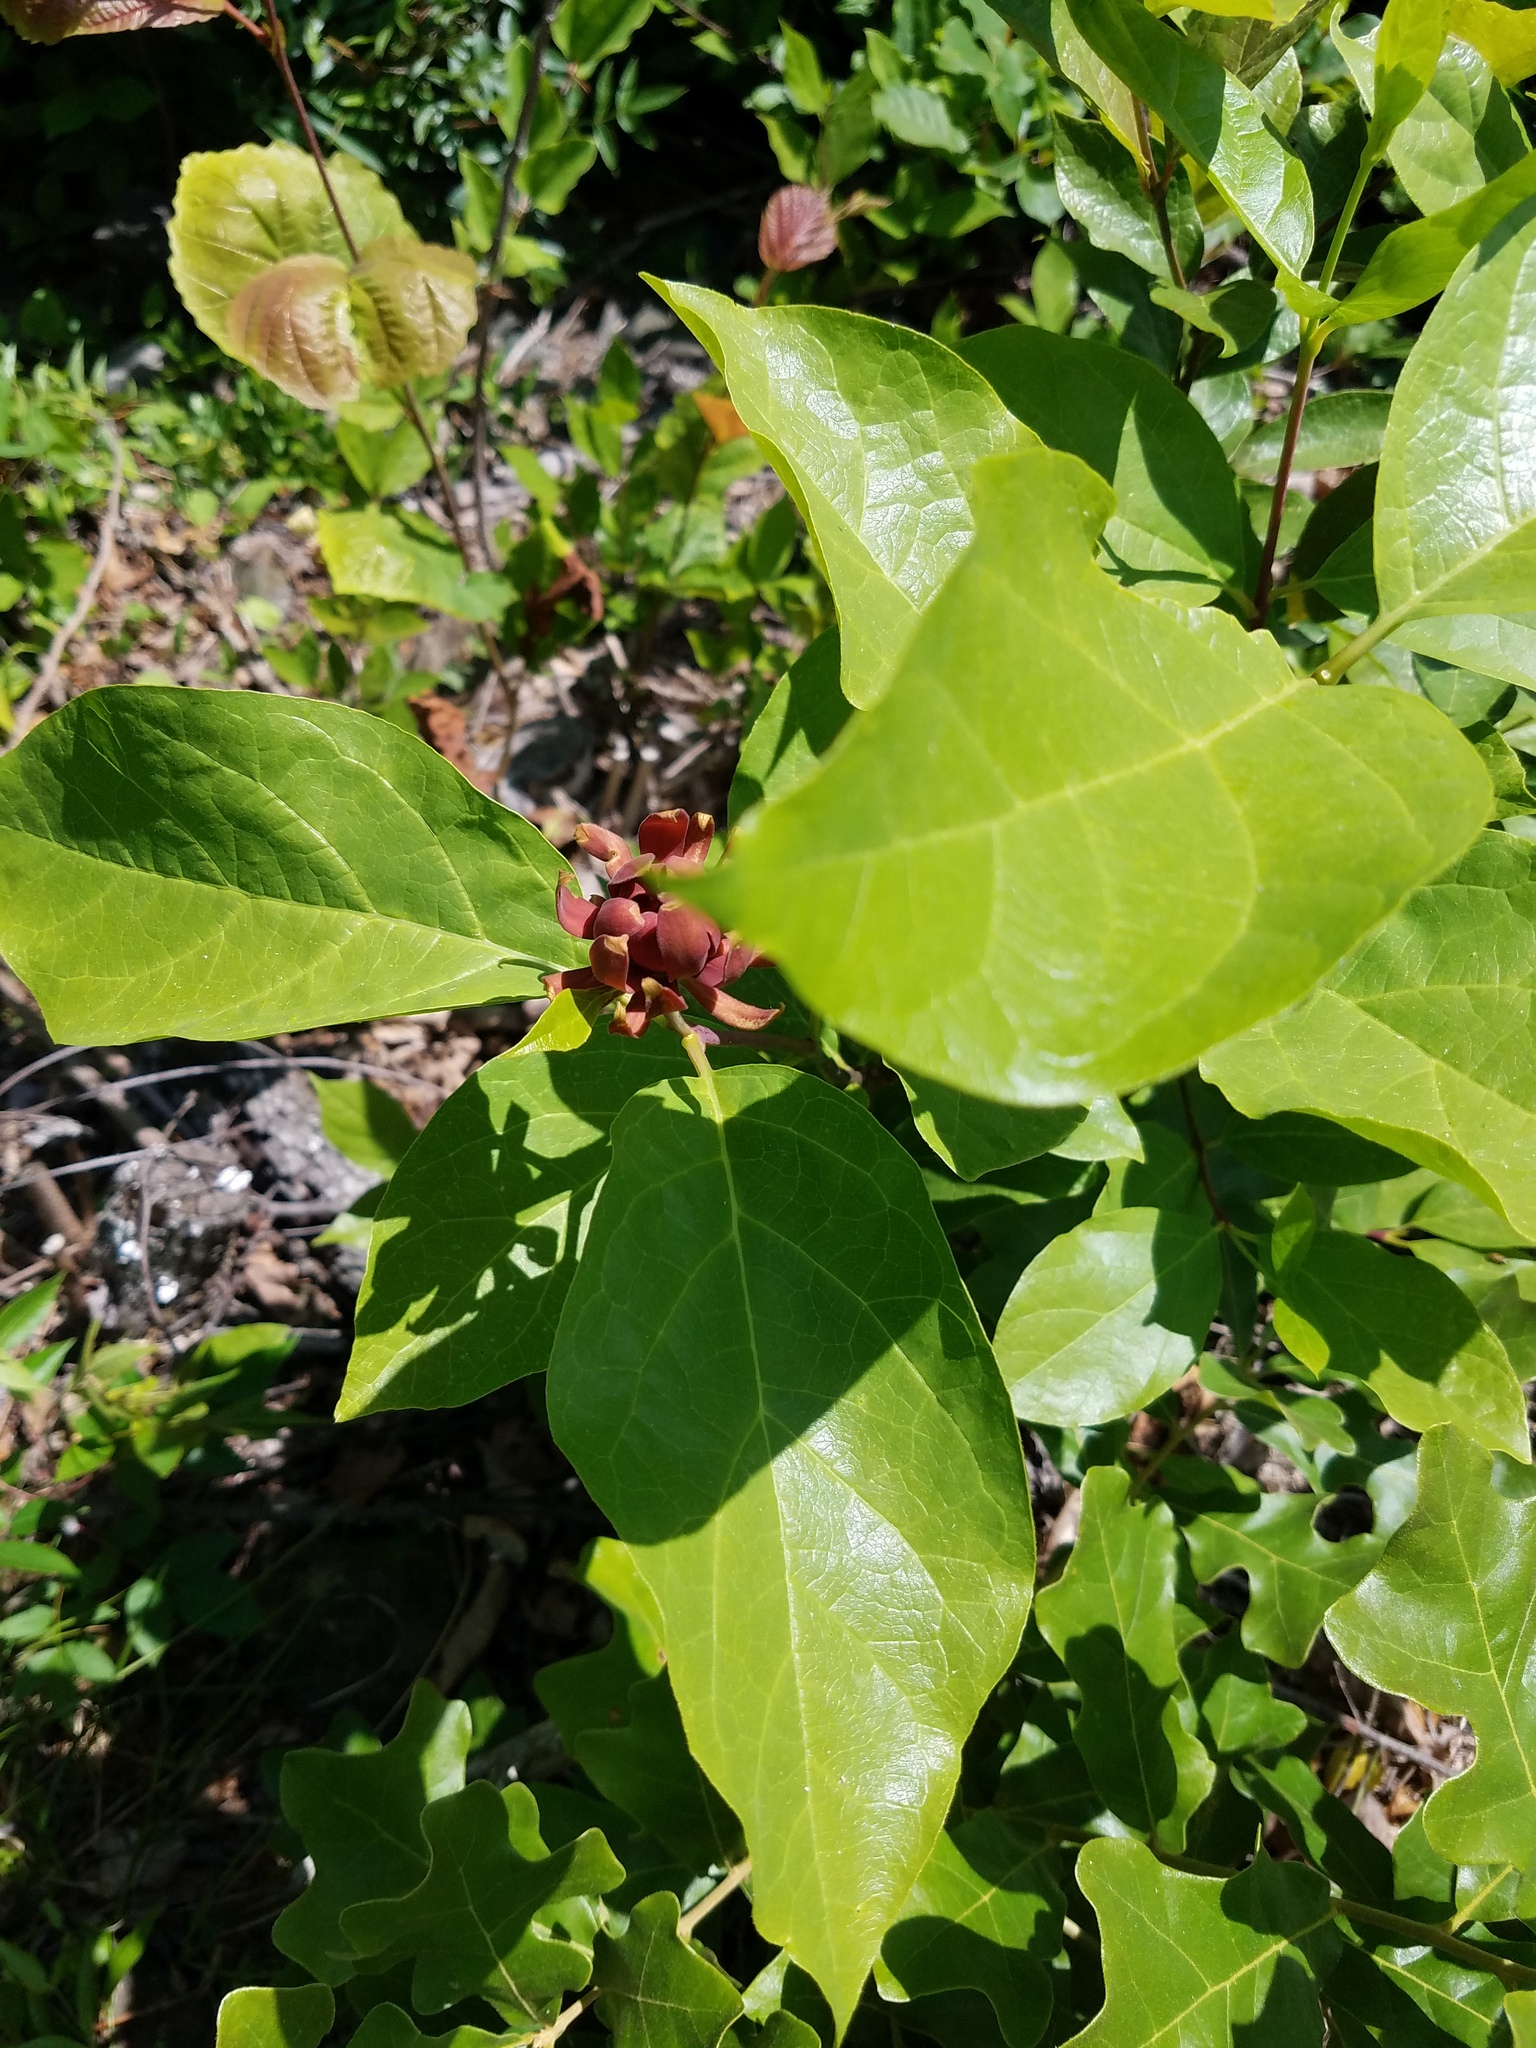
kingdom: Plantae
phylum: Tracheophyta
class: Magnoliopsida
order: Laurales
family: Calycanthaceae
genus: Calycanthus
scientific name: Calycanthus floridus
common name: Carolina-allspice
